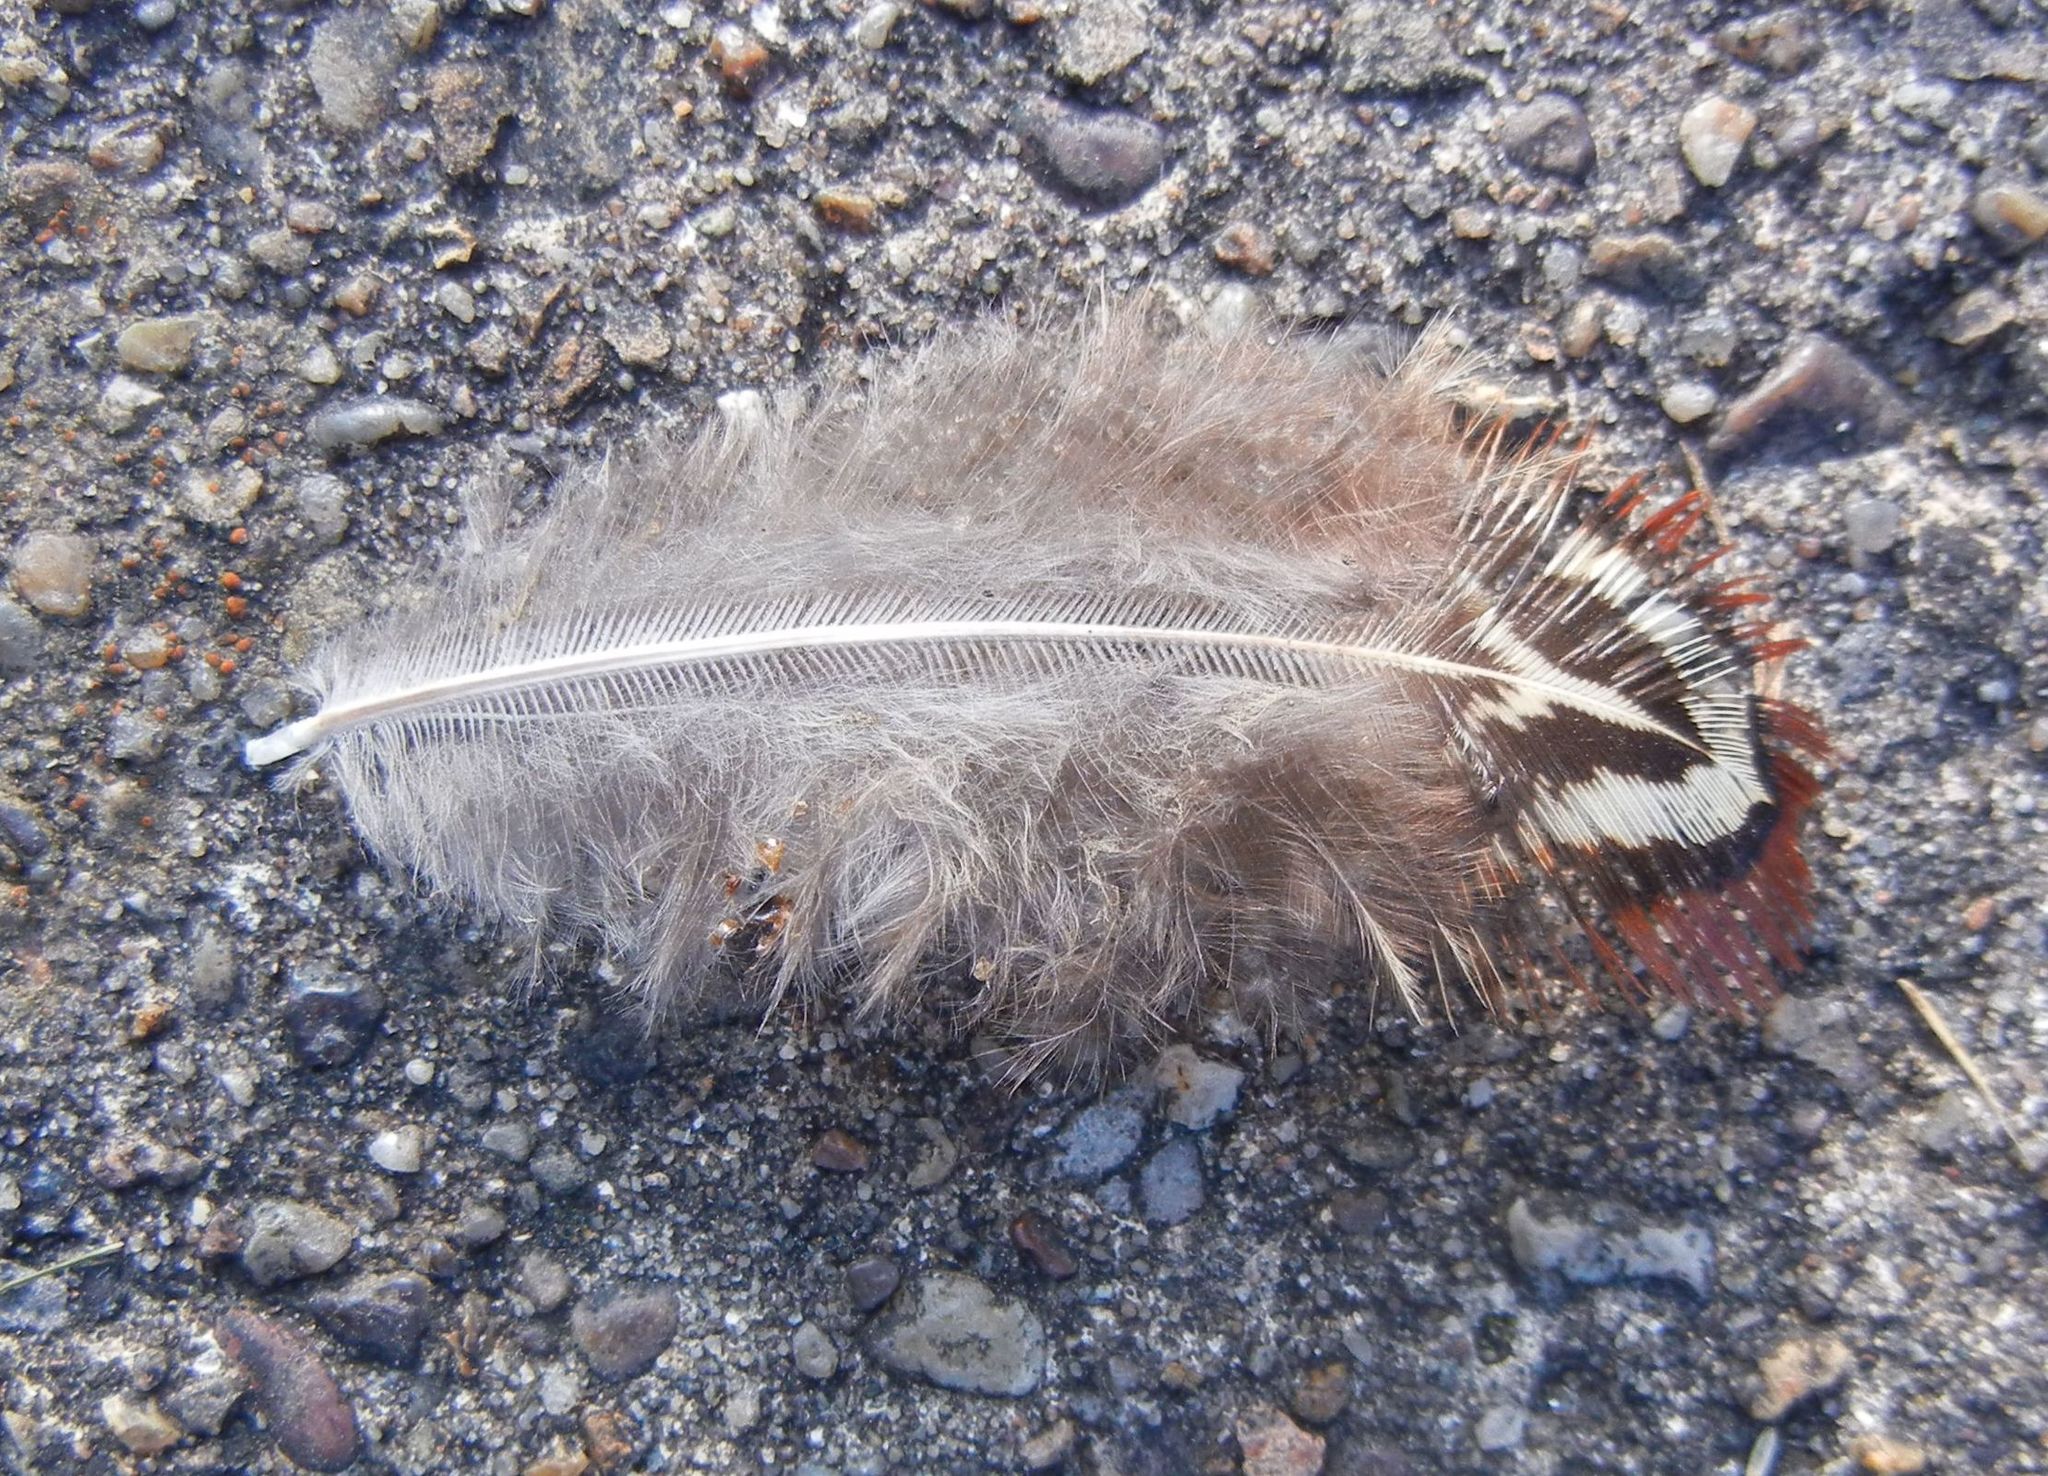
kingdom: Animalia
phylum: Chordata
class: Aves
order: Galliformes
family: Phasianidae
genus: Phasianus
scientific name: Phasianus colchicus
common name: Common pheasant
